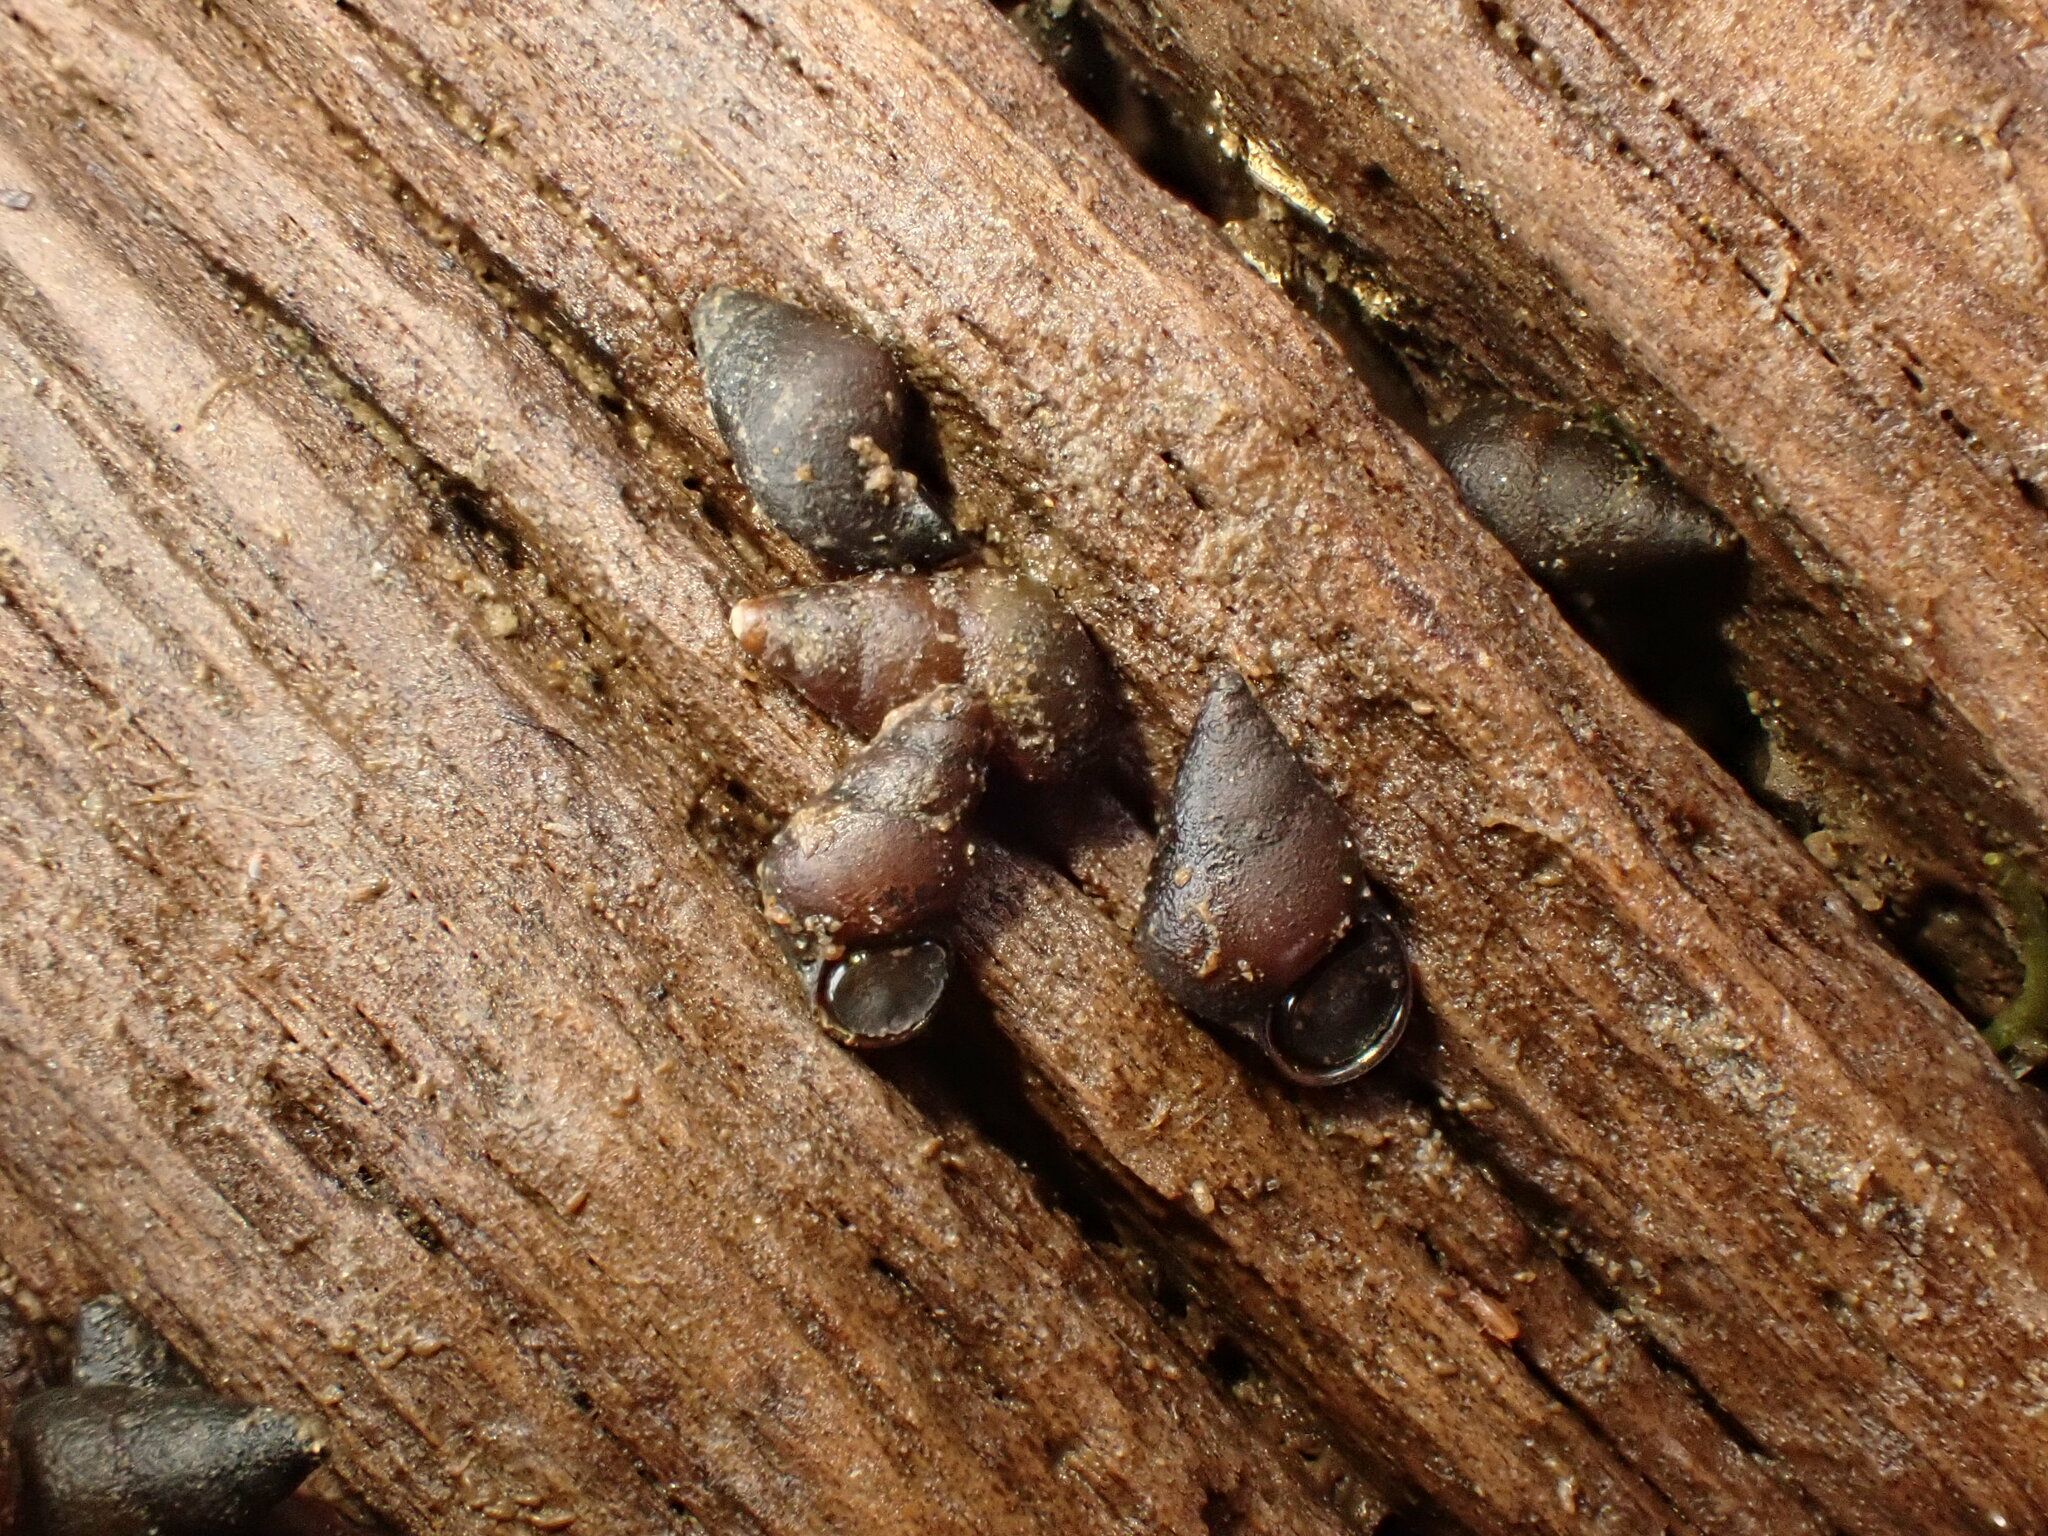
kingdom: Animalia
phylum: Mollusca
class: Gastropoda
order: Littorinimorpha
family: Tateidae
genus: Potamopyrgus
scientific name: Potamopyrgus estuarinus
